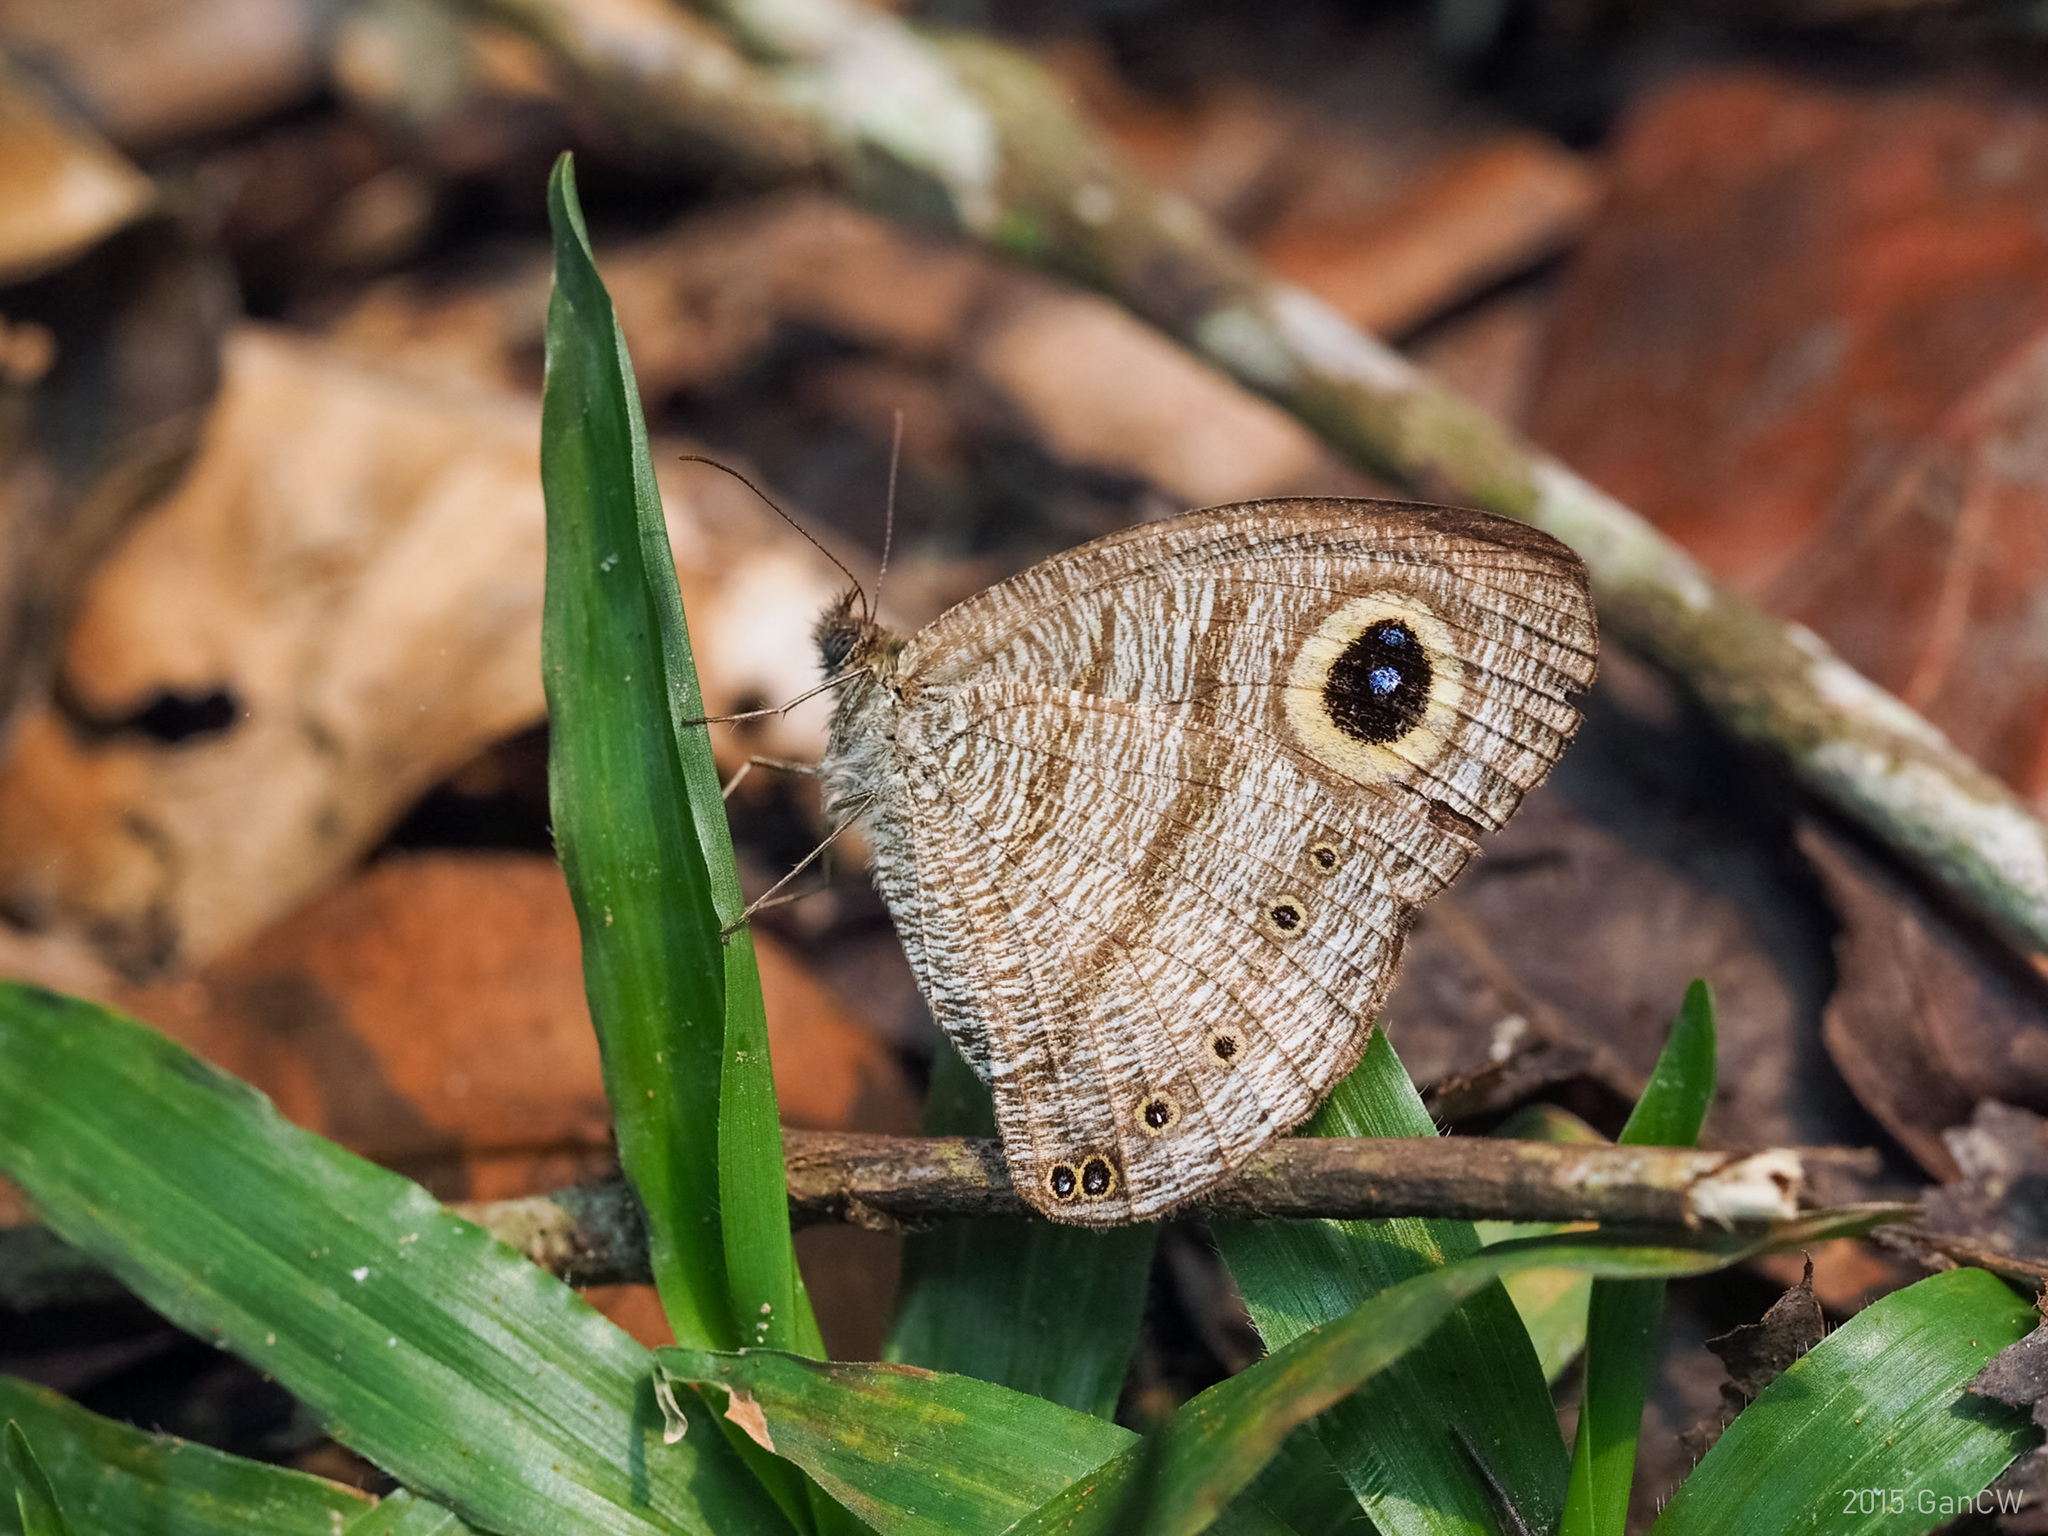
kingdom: Animalia
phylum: Arthropoda
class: Insecta
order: Lepidoptera
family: Nymphalidae
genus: Ypthima
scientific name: Ypthima fasciata
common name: Malayan six-ring
